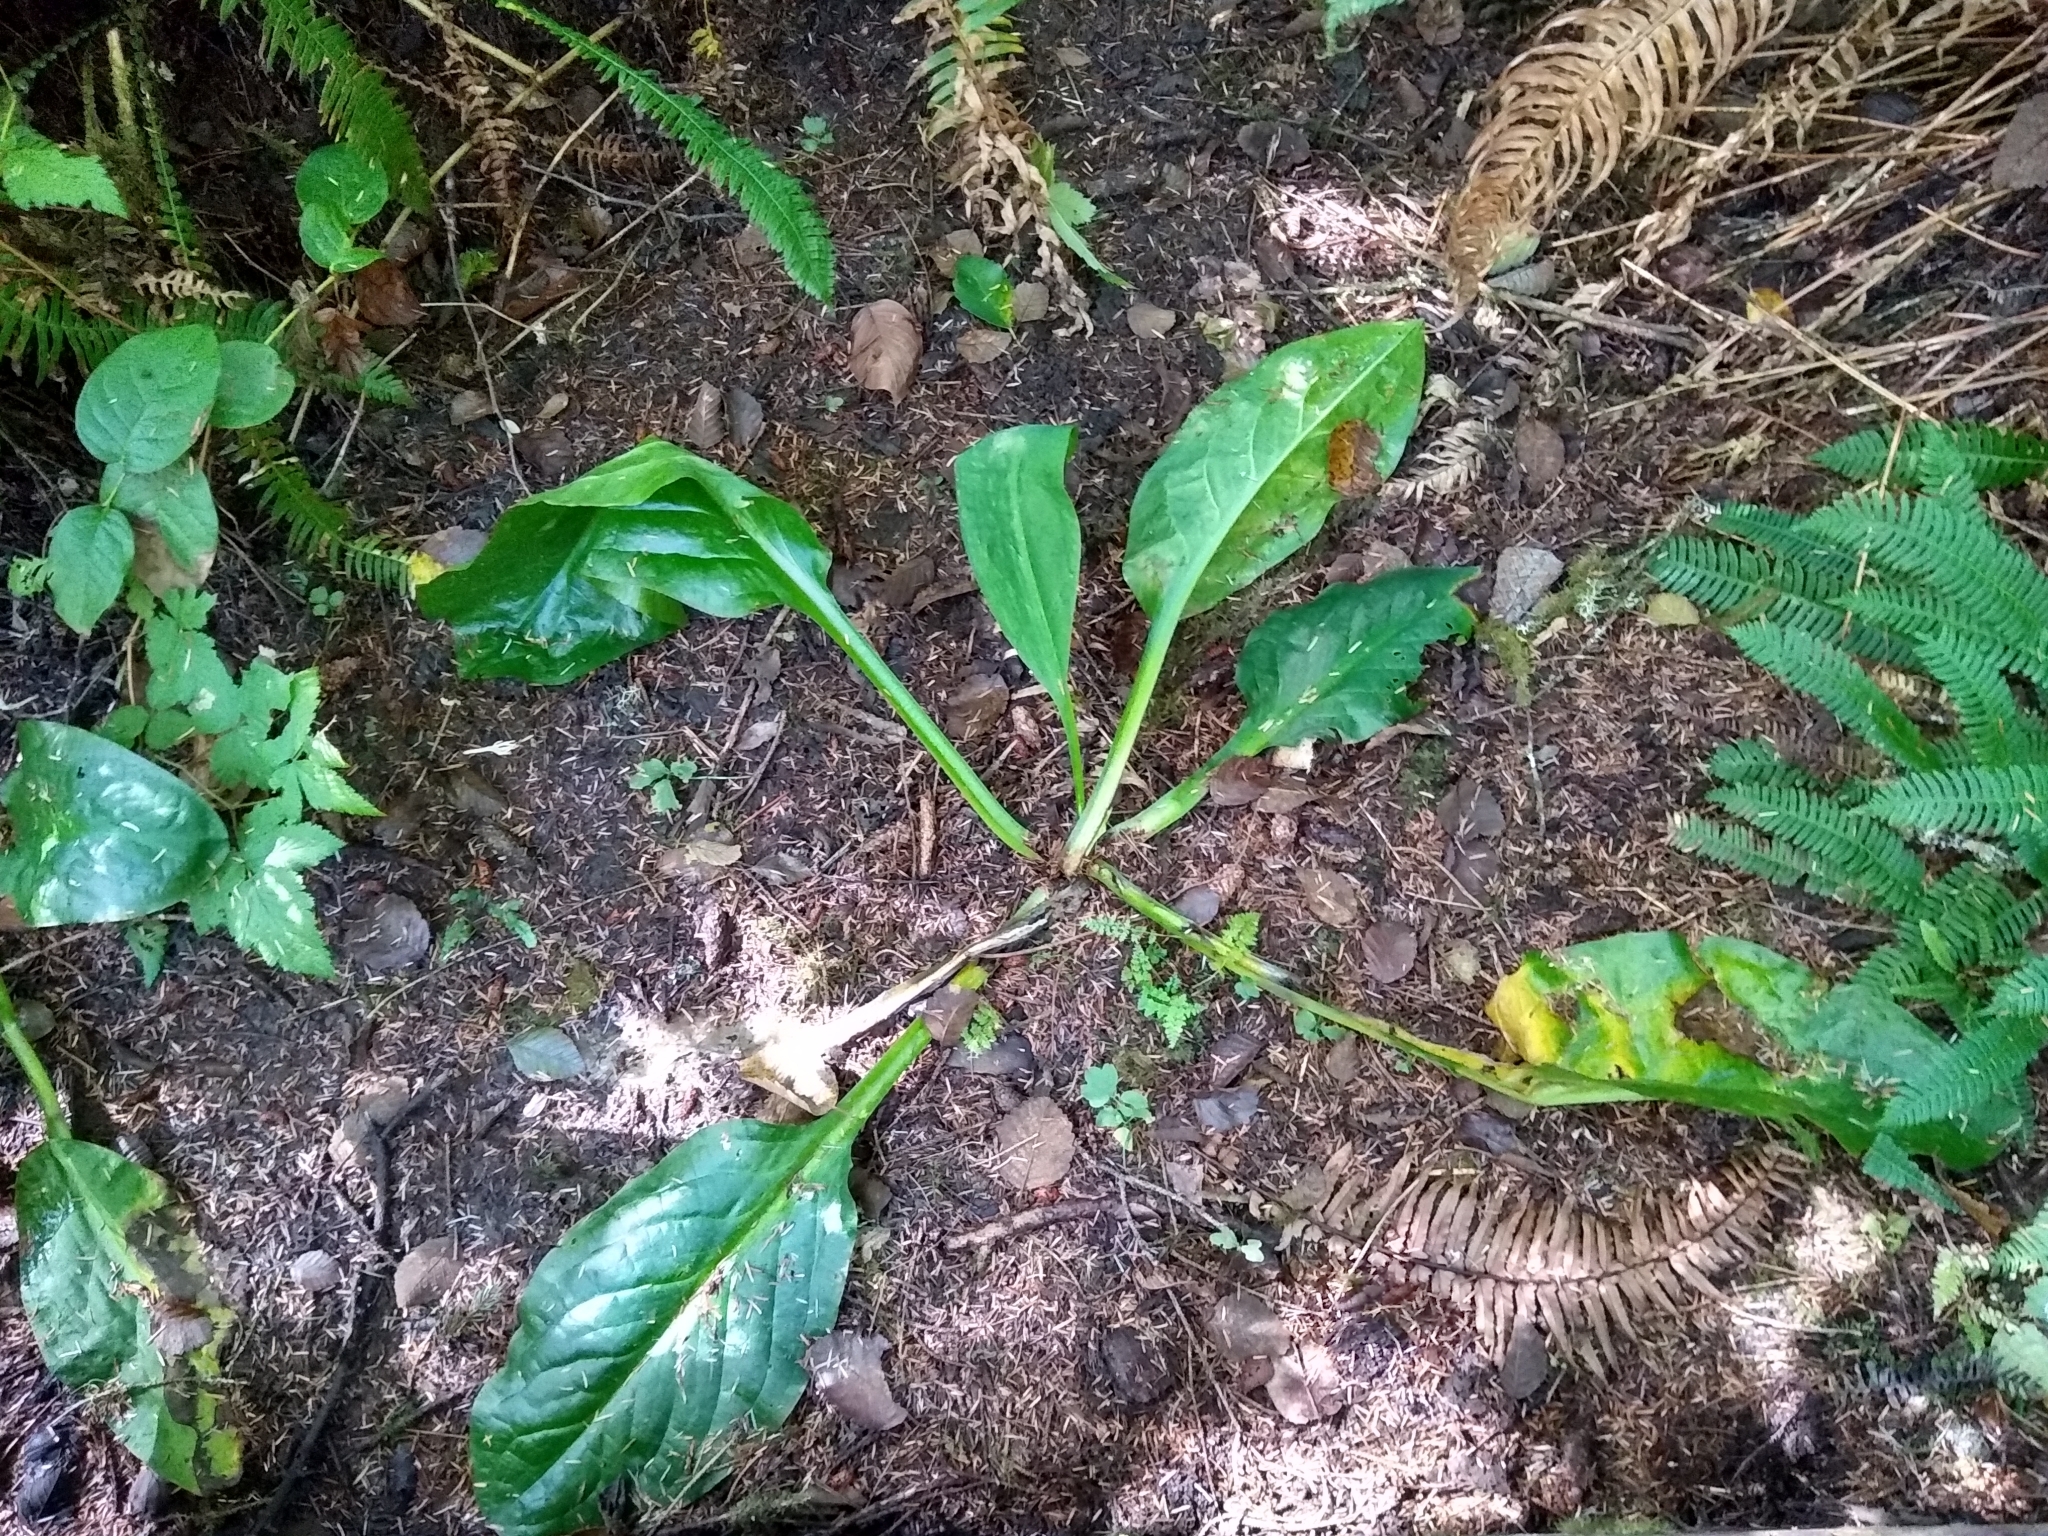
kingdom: Plantae
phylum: Tracheophyta
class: Liliopsida
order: Alismatales
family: Araceae
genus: Lysichiton
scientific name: Lysichiton americanus
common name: American skunk cabbage
